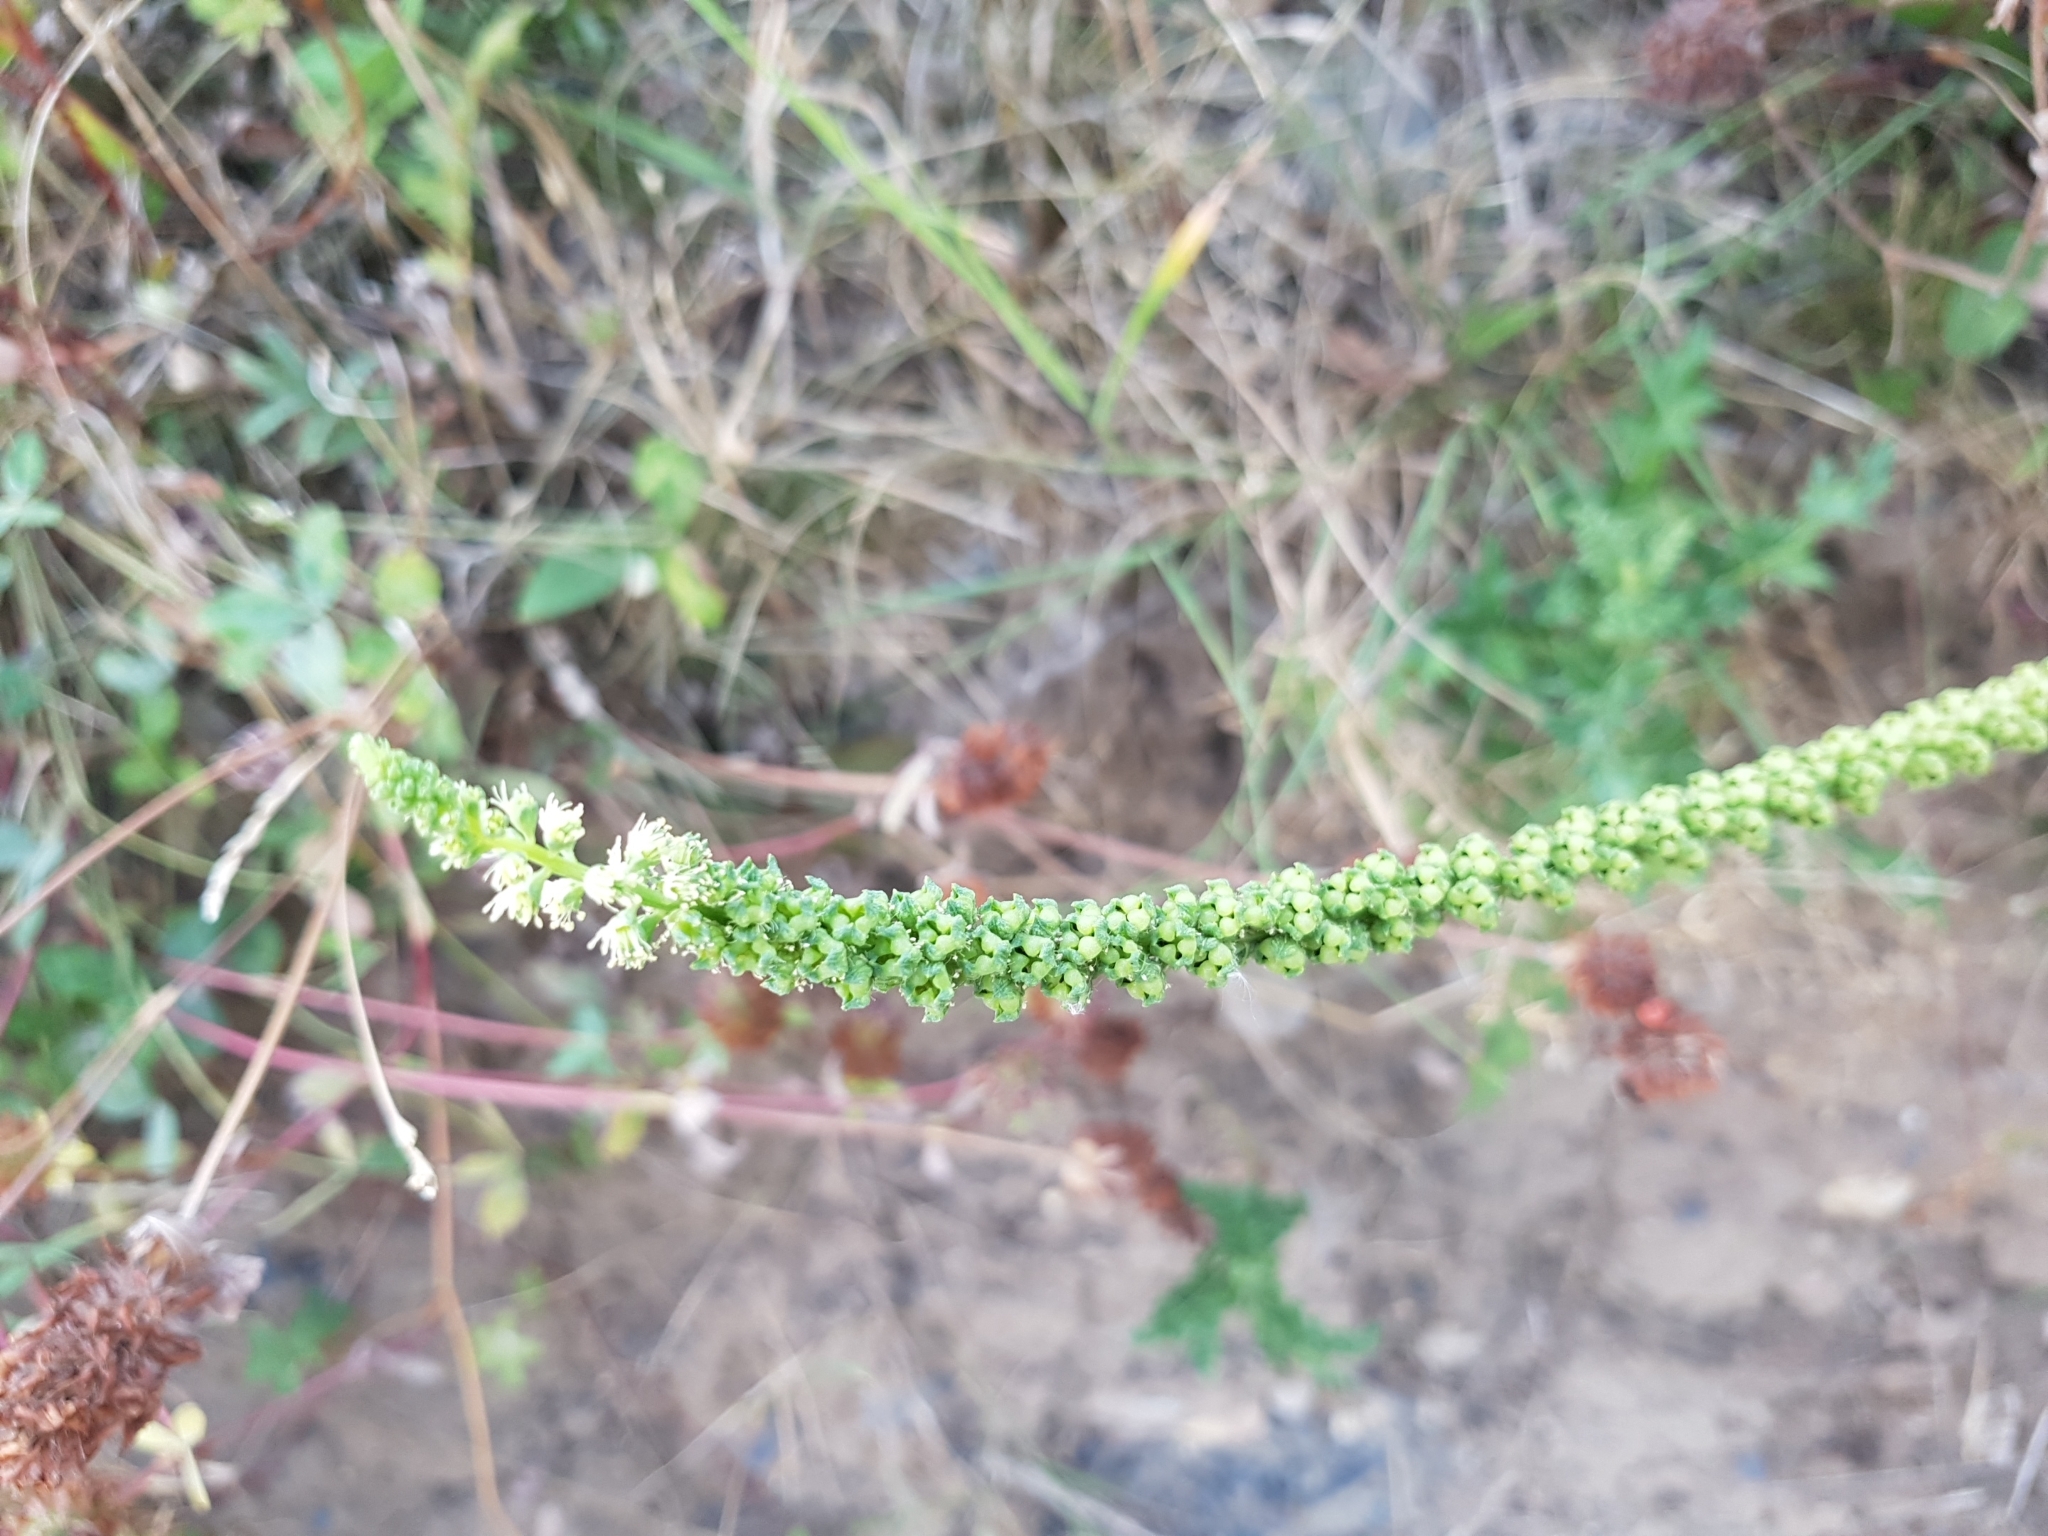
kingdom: Plantae
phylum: Tracheophyta
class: Magnoliopsida
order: Brassicales
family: Resedaceae
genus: Reseda
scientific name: Reseda luteola
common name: Weld
